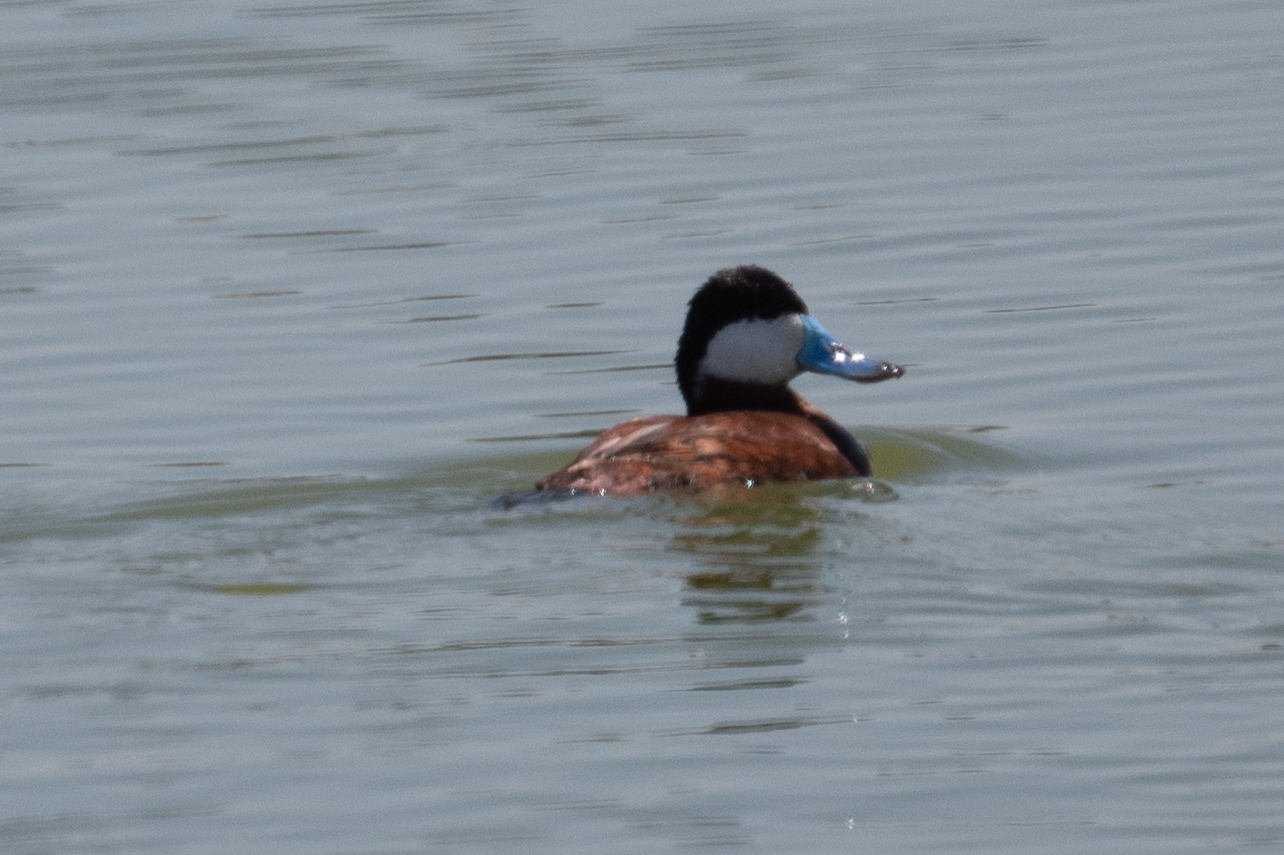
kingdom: Animalia
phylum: Chordata
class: Aves
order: Anseriformes
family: Anatidae
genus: Oxyura
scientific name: Oxyura jamaicensis
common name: Ruddy duck
